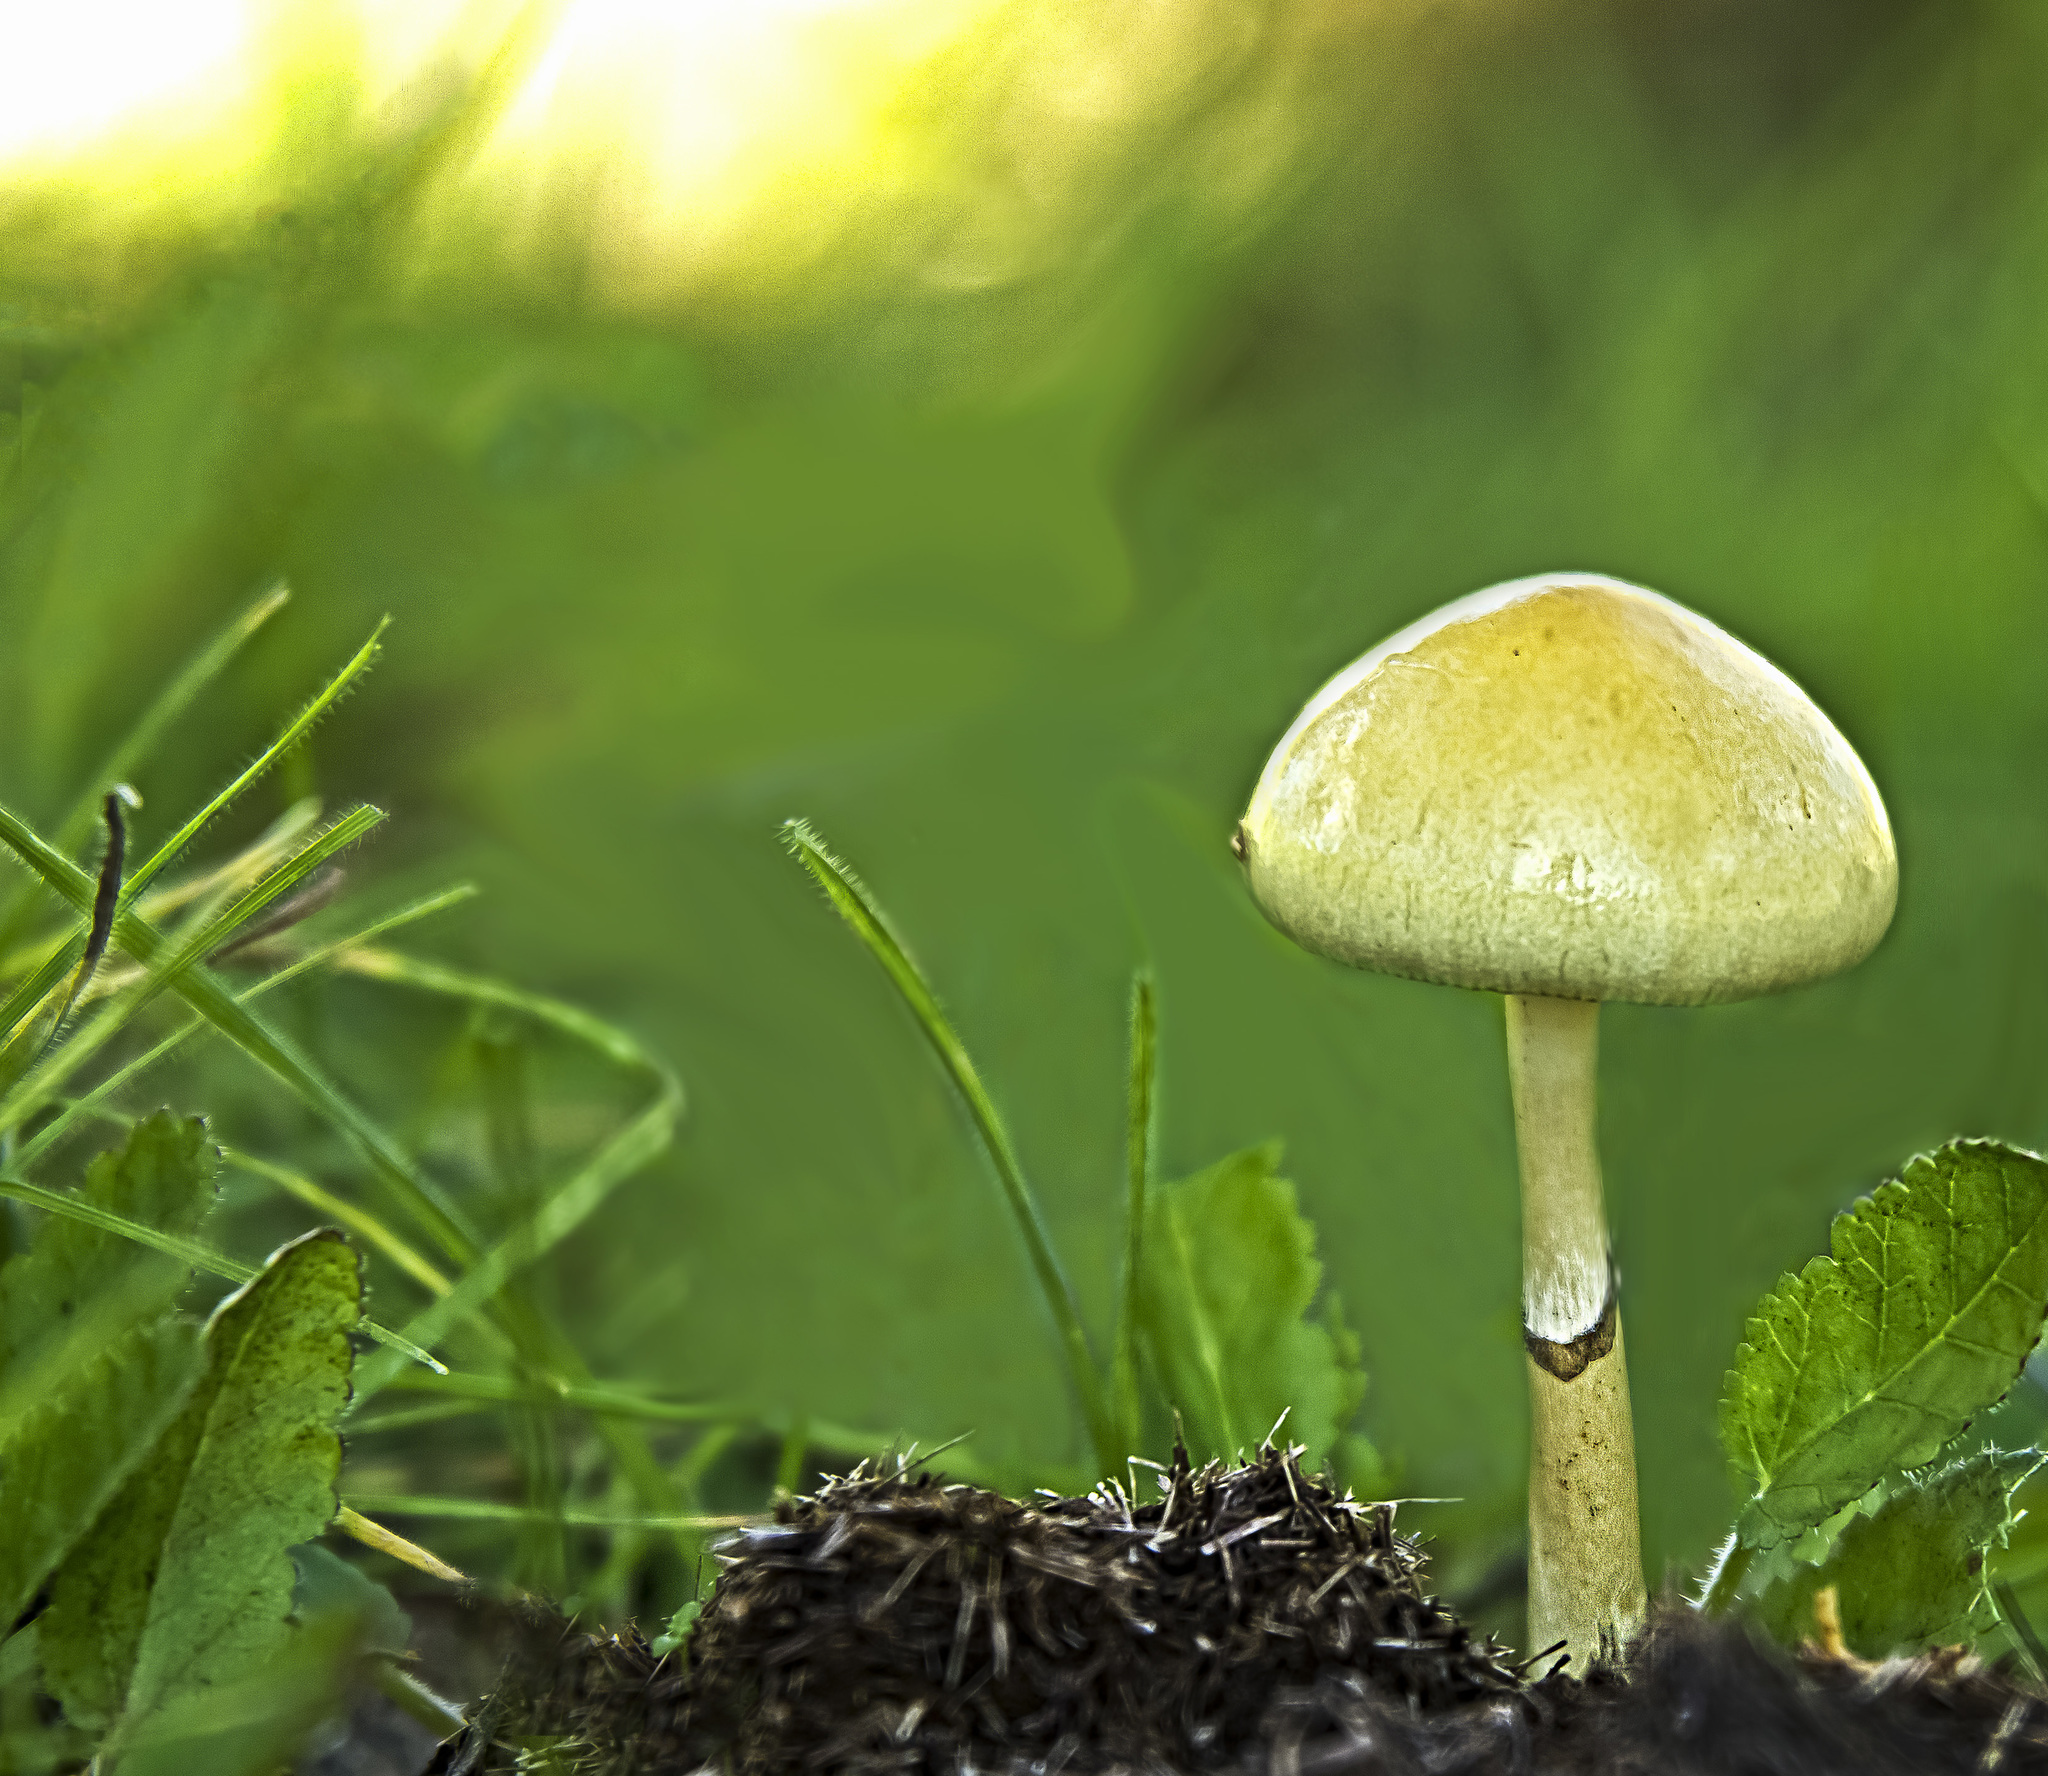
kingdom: Fungi
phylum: Basidiomycota
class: Agaricomycetes
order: Agaricales
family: Strophariaceae
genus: Protostropharia
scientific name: Protostropharia semiglobata
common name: Dung roundhead
